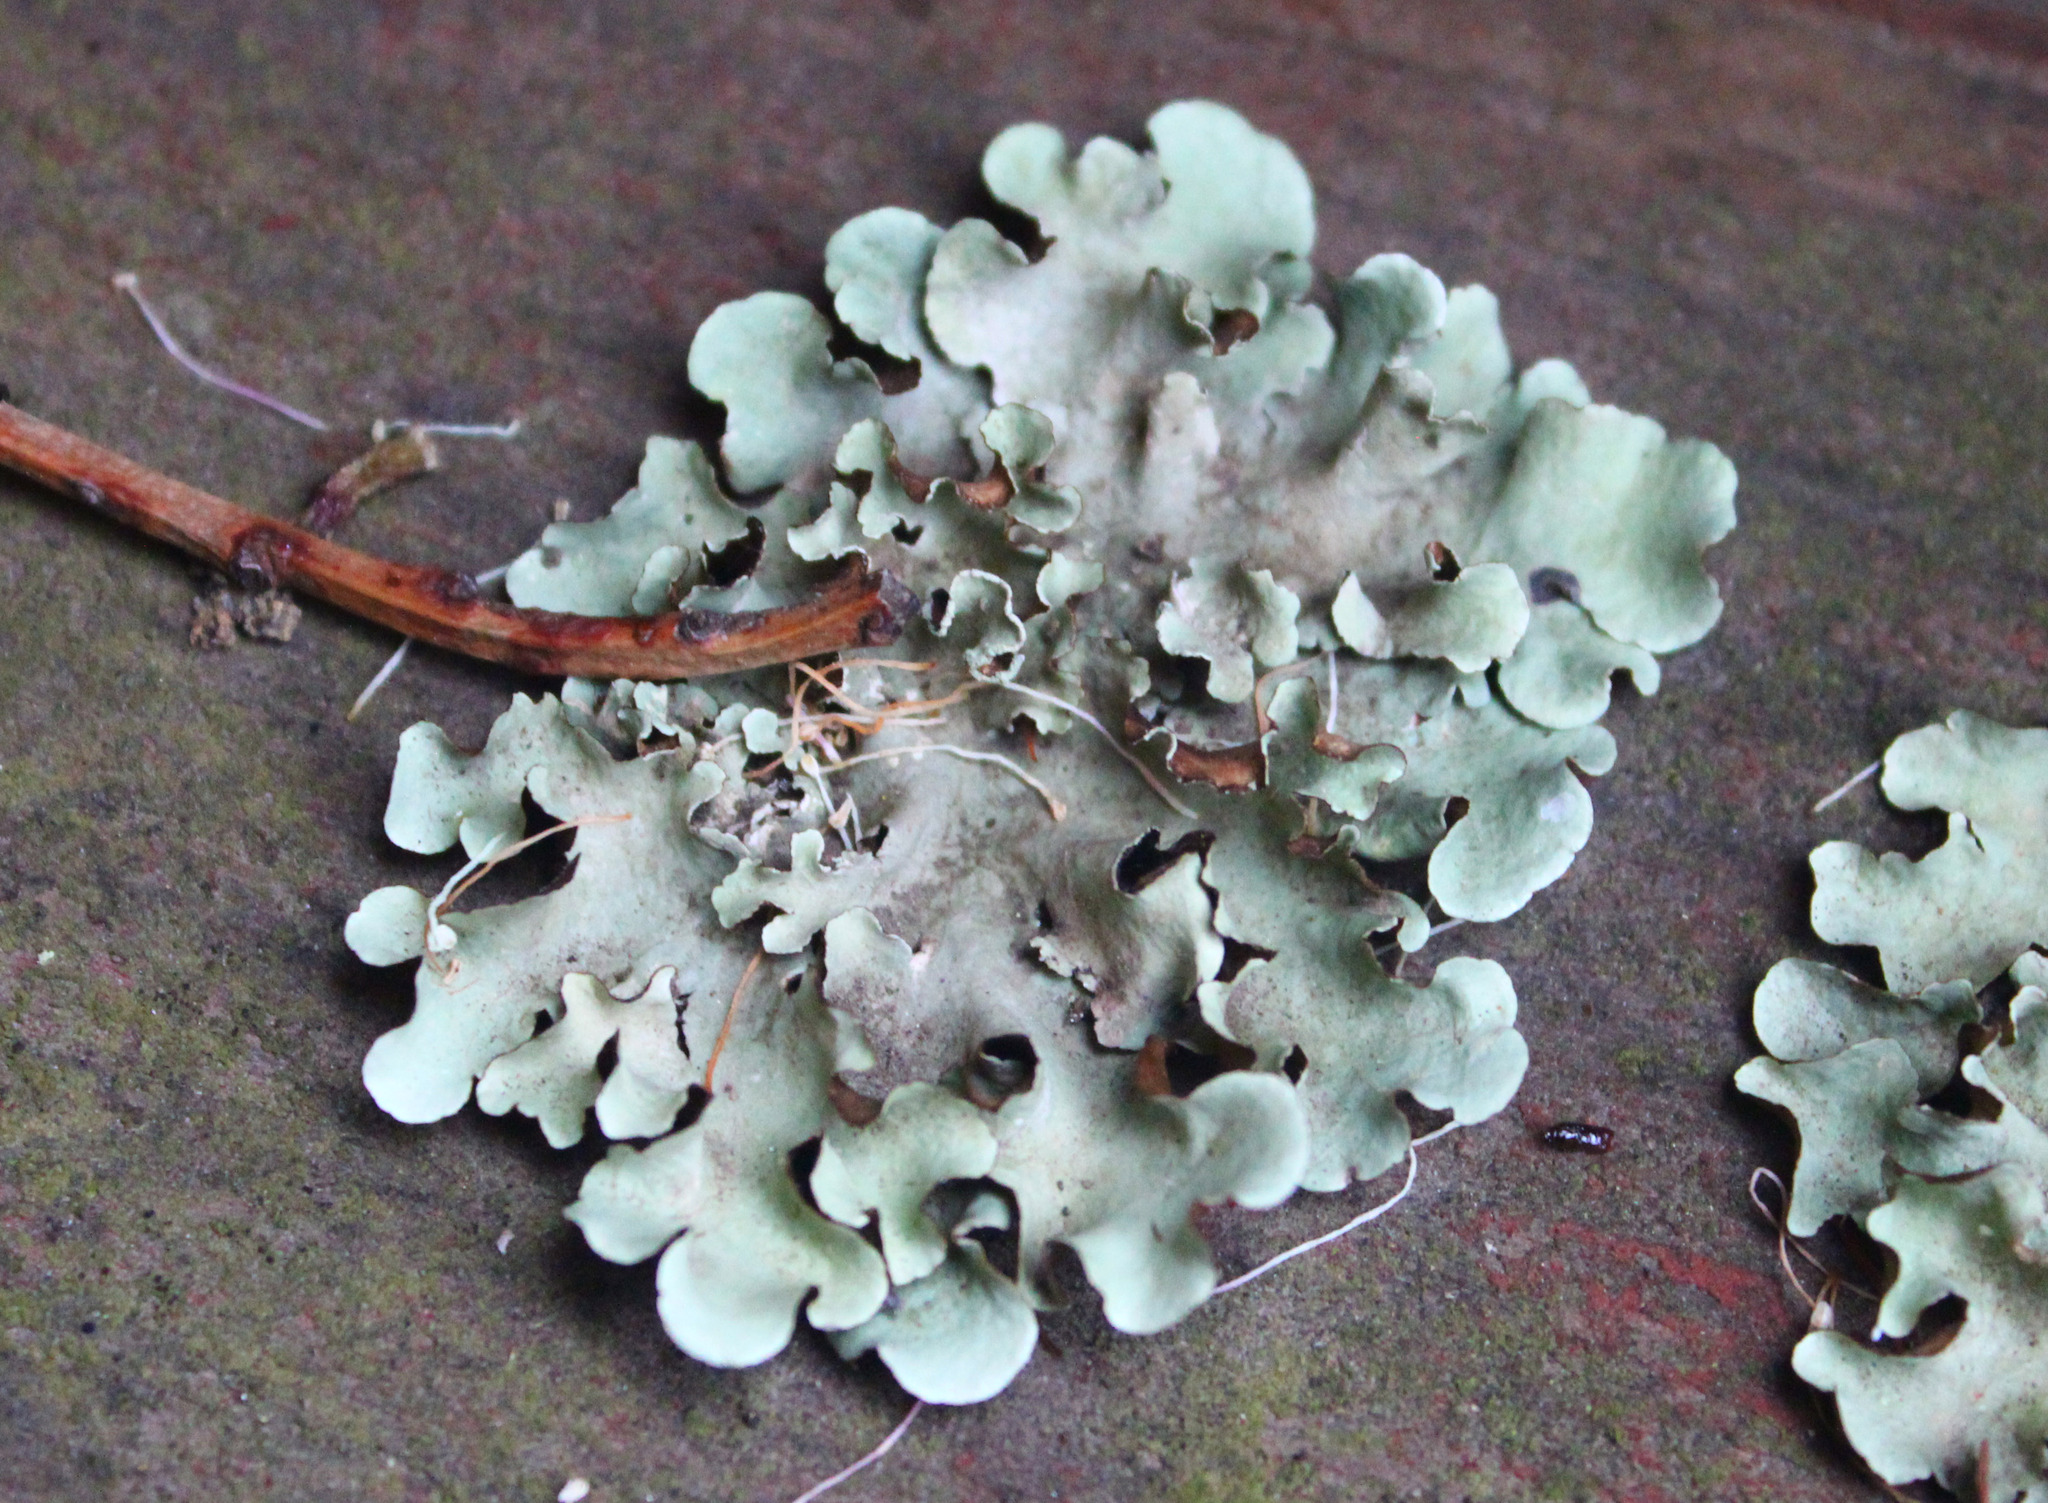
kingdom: Fungi
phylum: Ascomycota
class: Lecanoromycetes
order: Lecanorales
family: Parmeliaceae
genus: Parmotrema
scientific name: Parmotrema austrosinense
